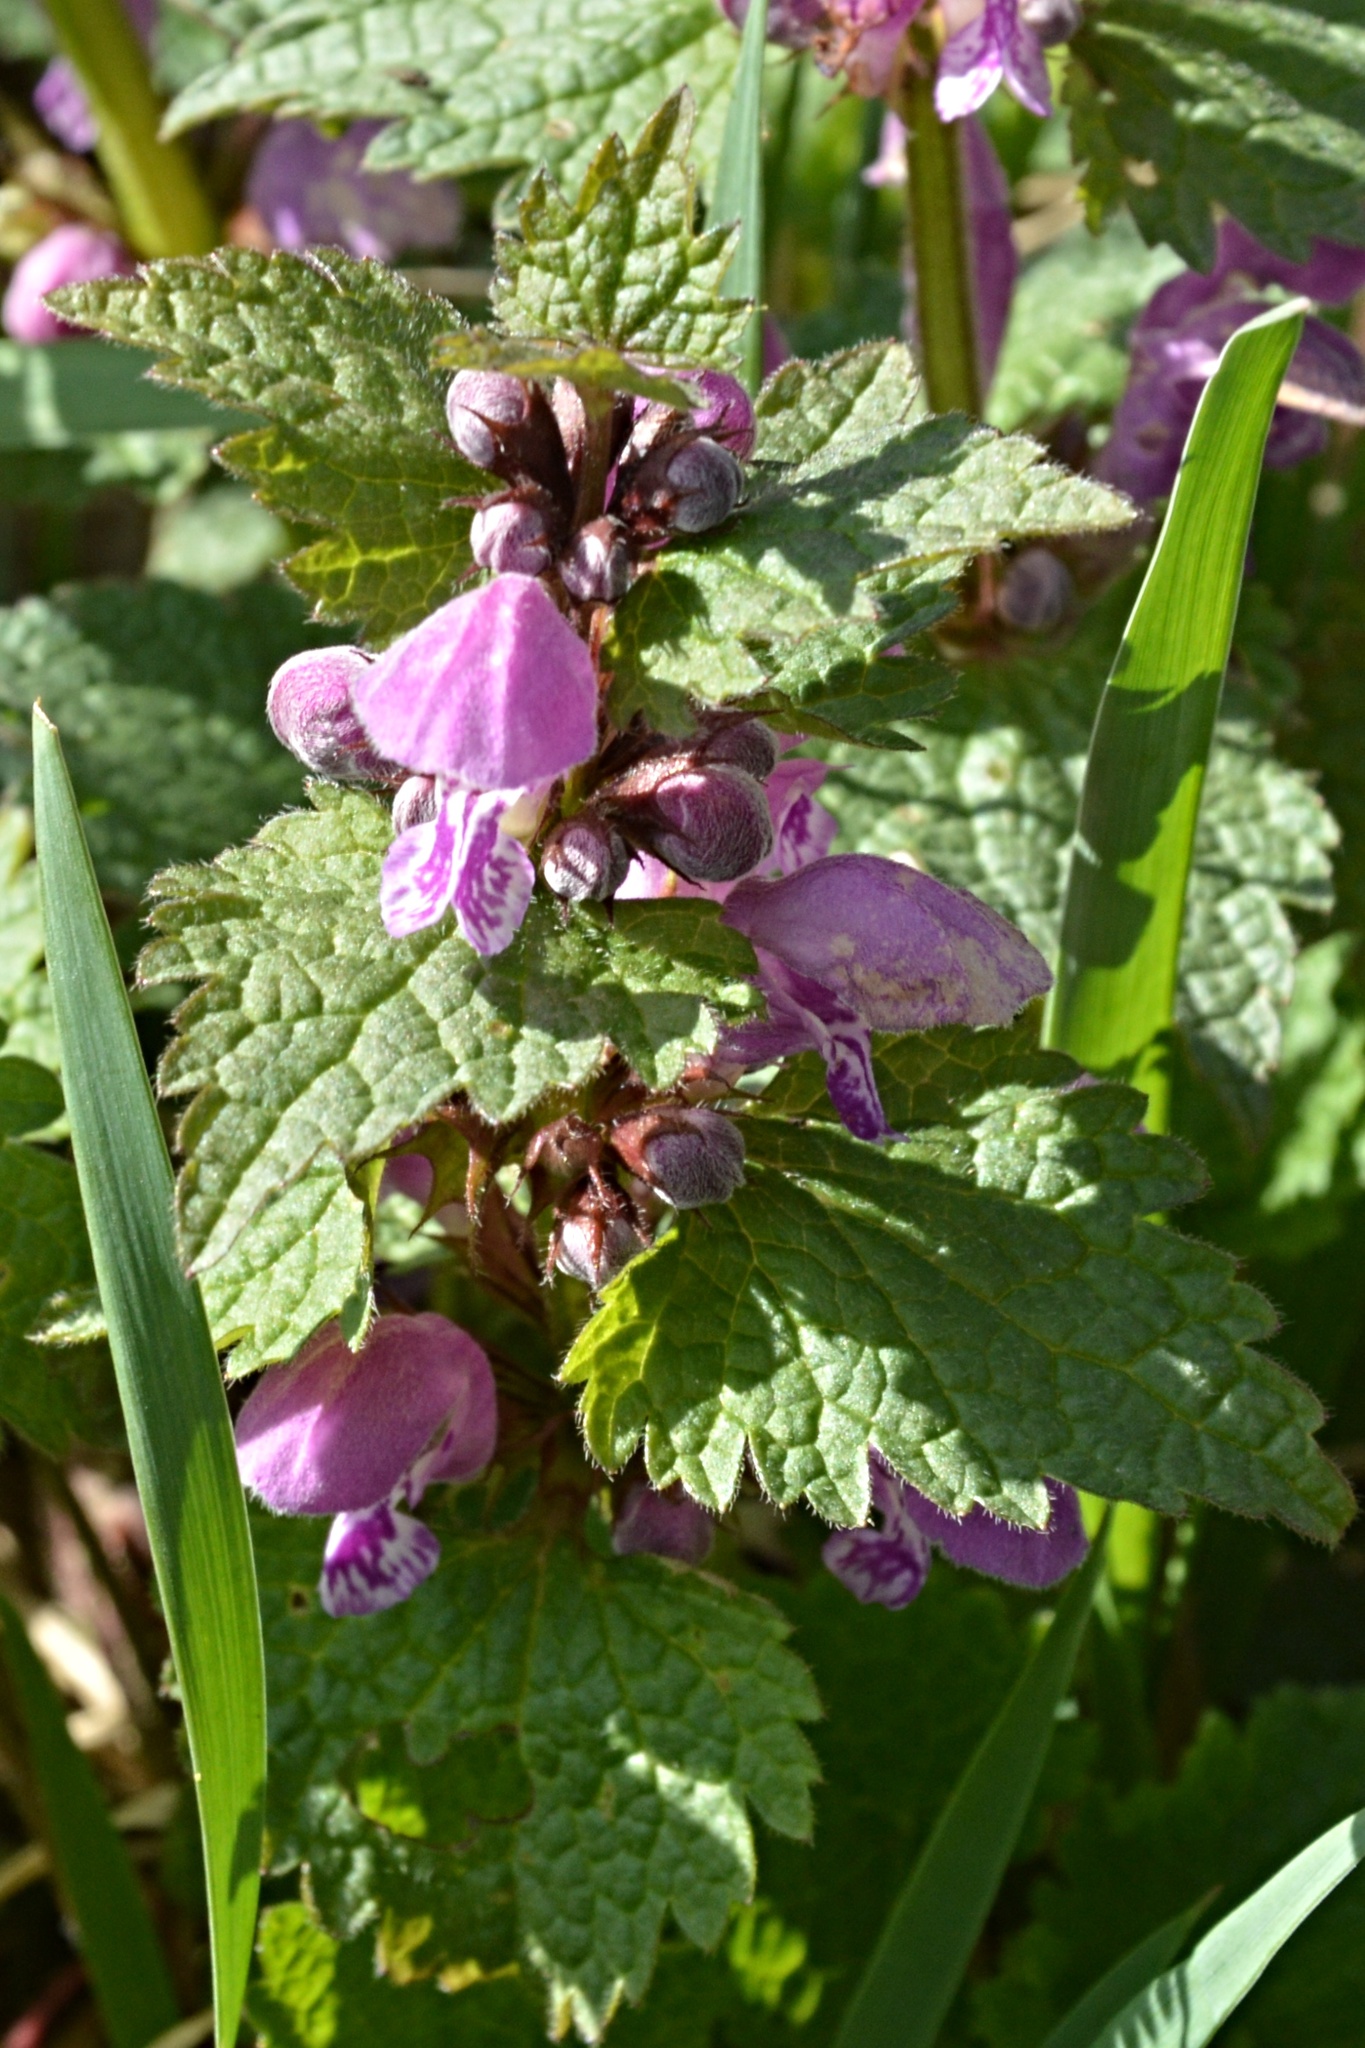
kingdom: Plantae
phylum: Tracheophyta
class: Magnoliopsida
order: Lamiales
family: Lamiaceae
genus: Lamium
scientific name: Lamium maculatum
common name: Spotted dead-nettle
